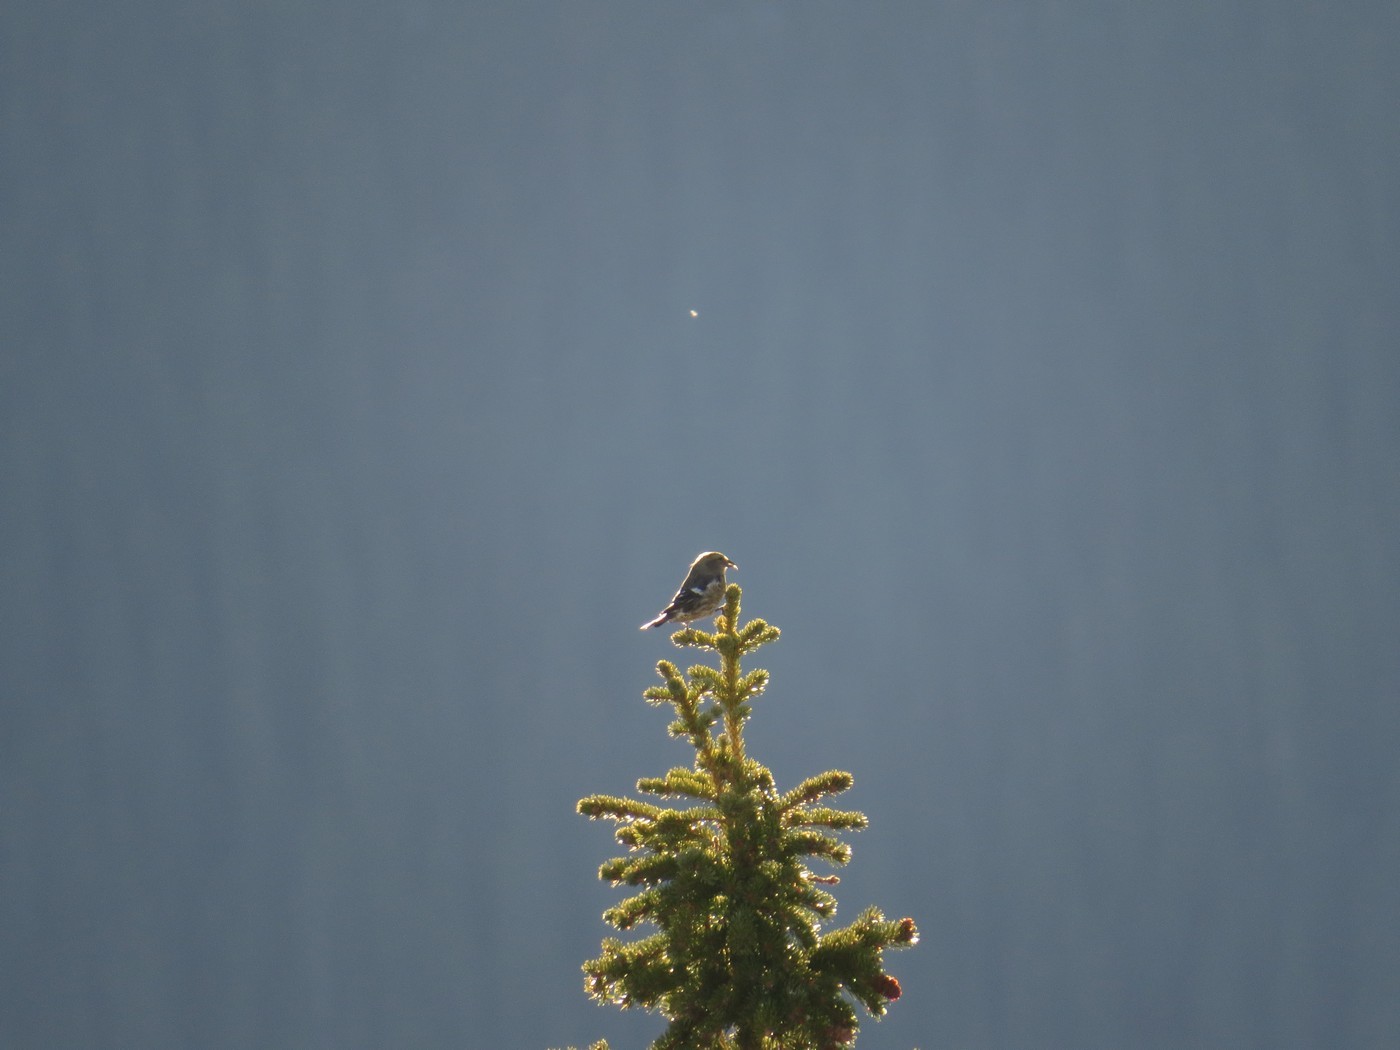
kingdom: Animalia
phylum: Chordata
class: Aves
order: Passeriformes
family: Fringillidae
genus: Loxia
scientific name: Loxia leucoptera
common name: Two-barred crossbill
